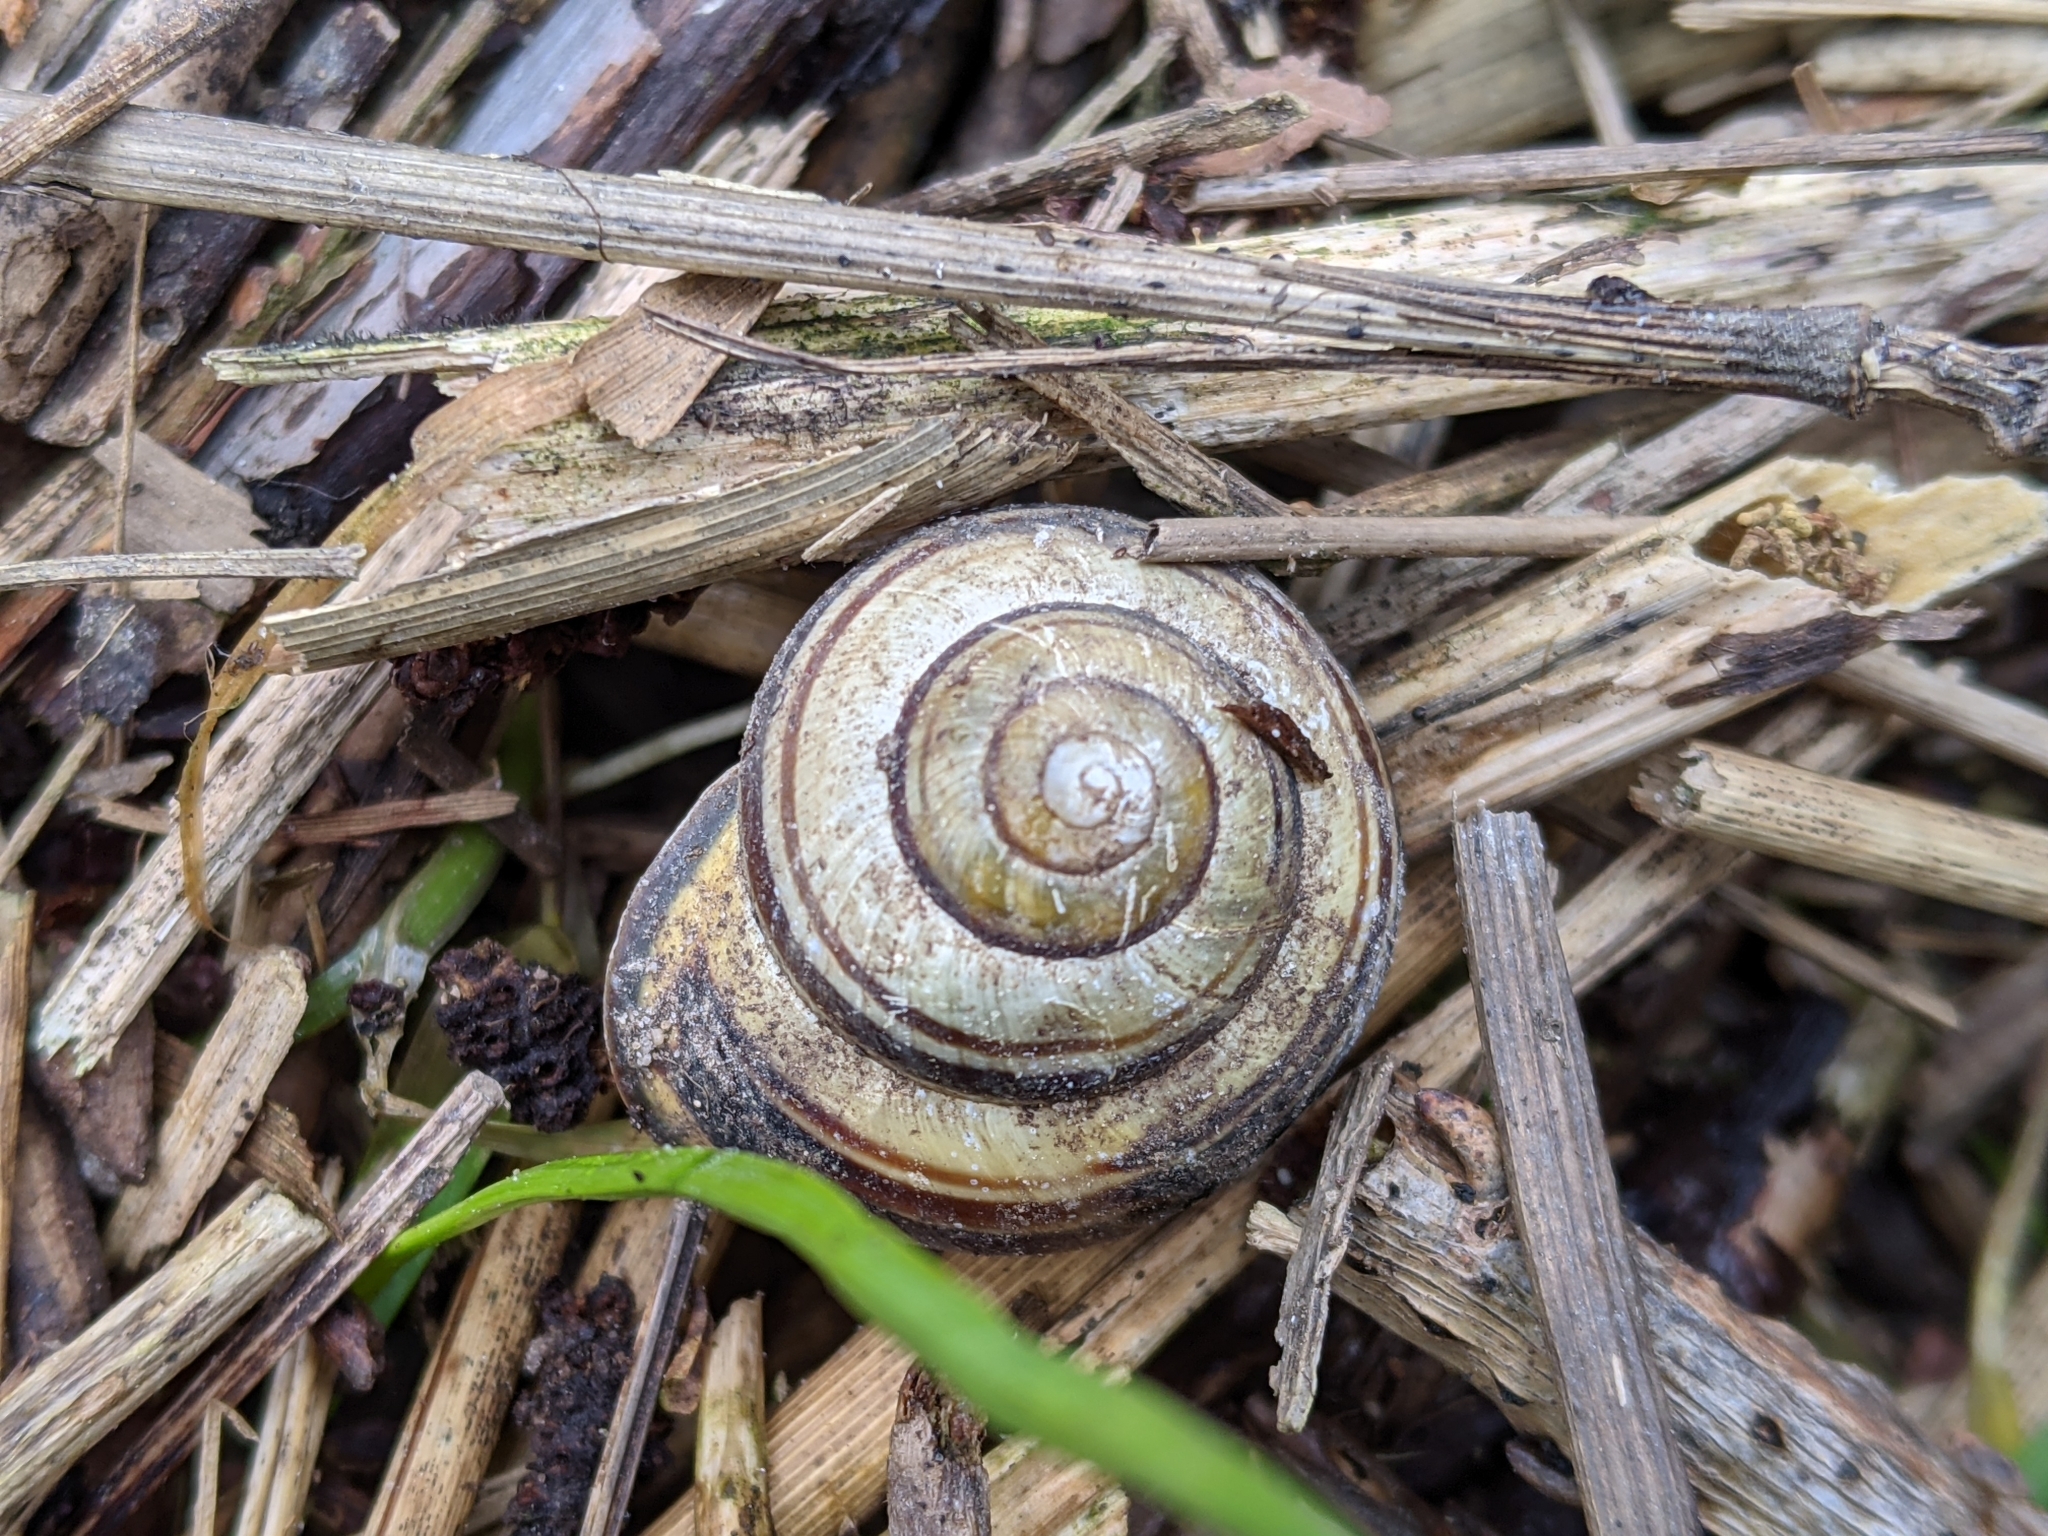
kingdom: Animalia
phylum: Mollusca
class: Gastropoda
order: Stylommatophora
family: Helicidae
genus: Cepaea
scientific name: Cepaea nemoralis
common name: Grovesnail
